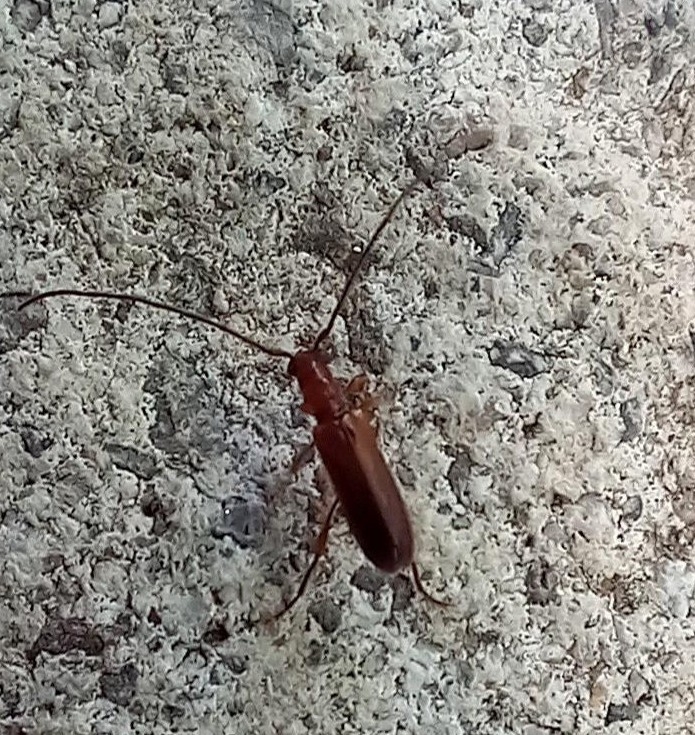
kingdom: Animalia
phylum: Arthropoda
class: Insecta
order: Coleoptera
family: Cerambycidae
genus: Obrium
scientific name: Obrium brunneum
